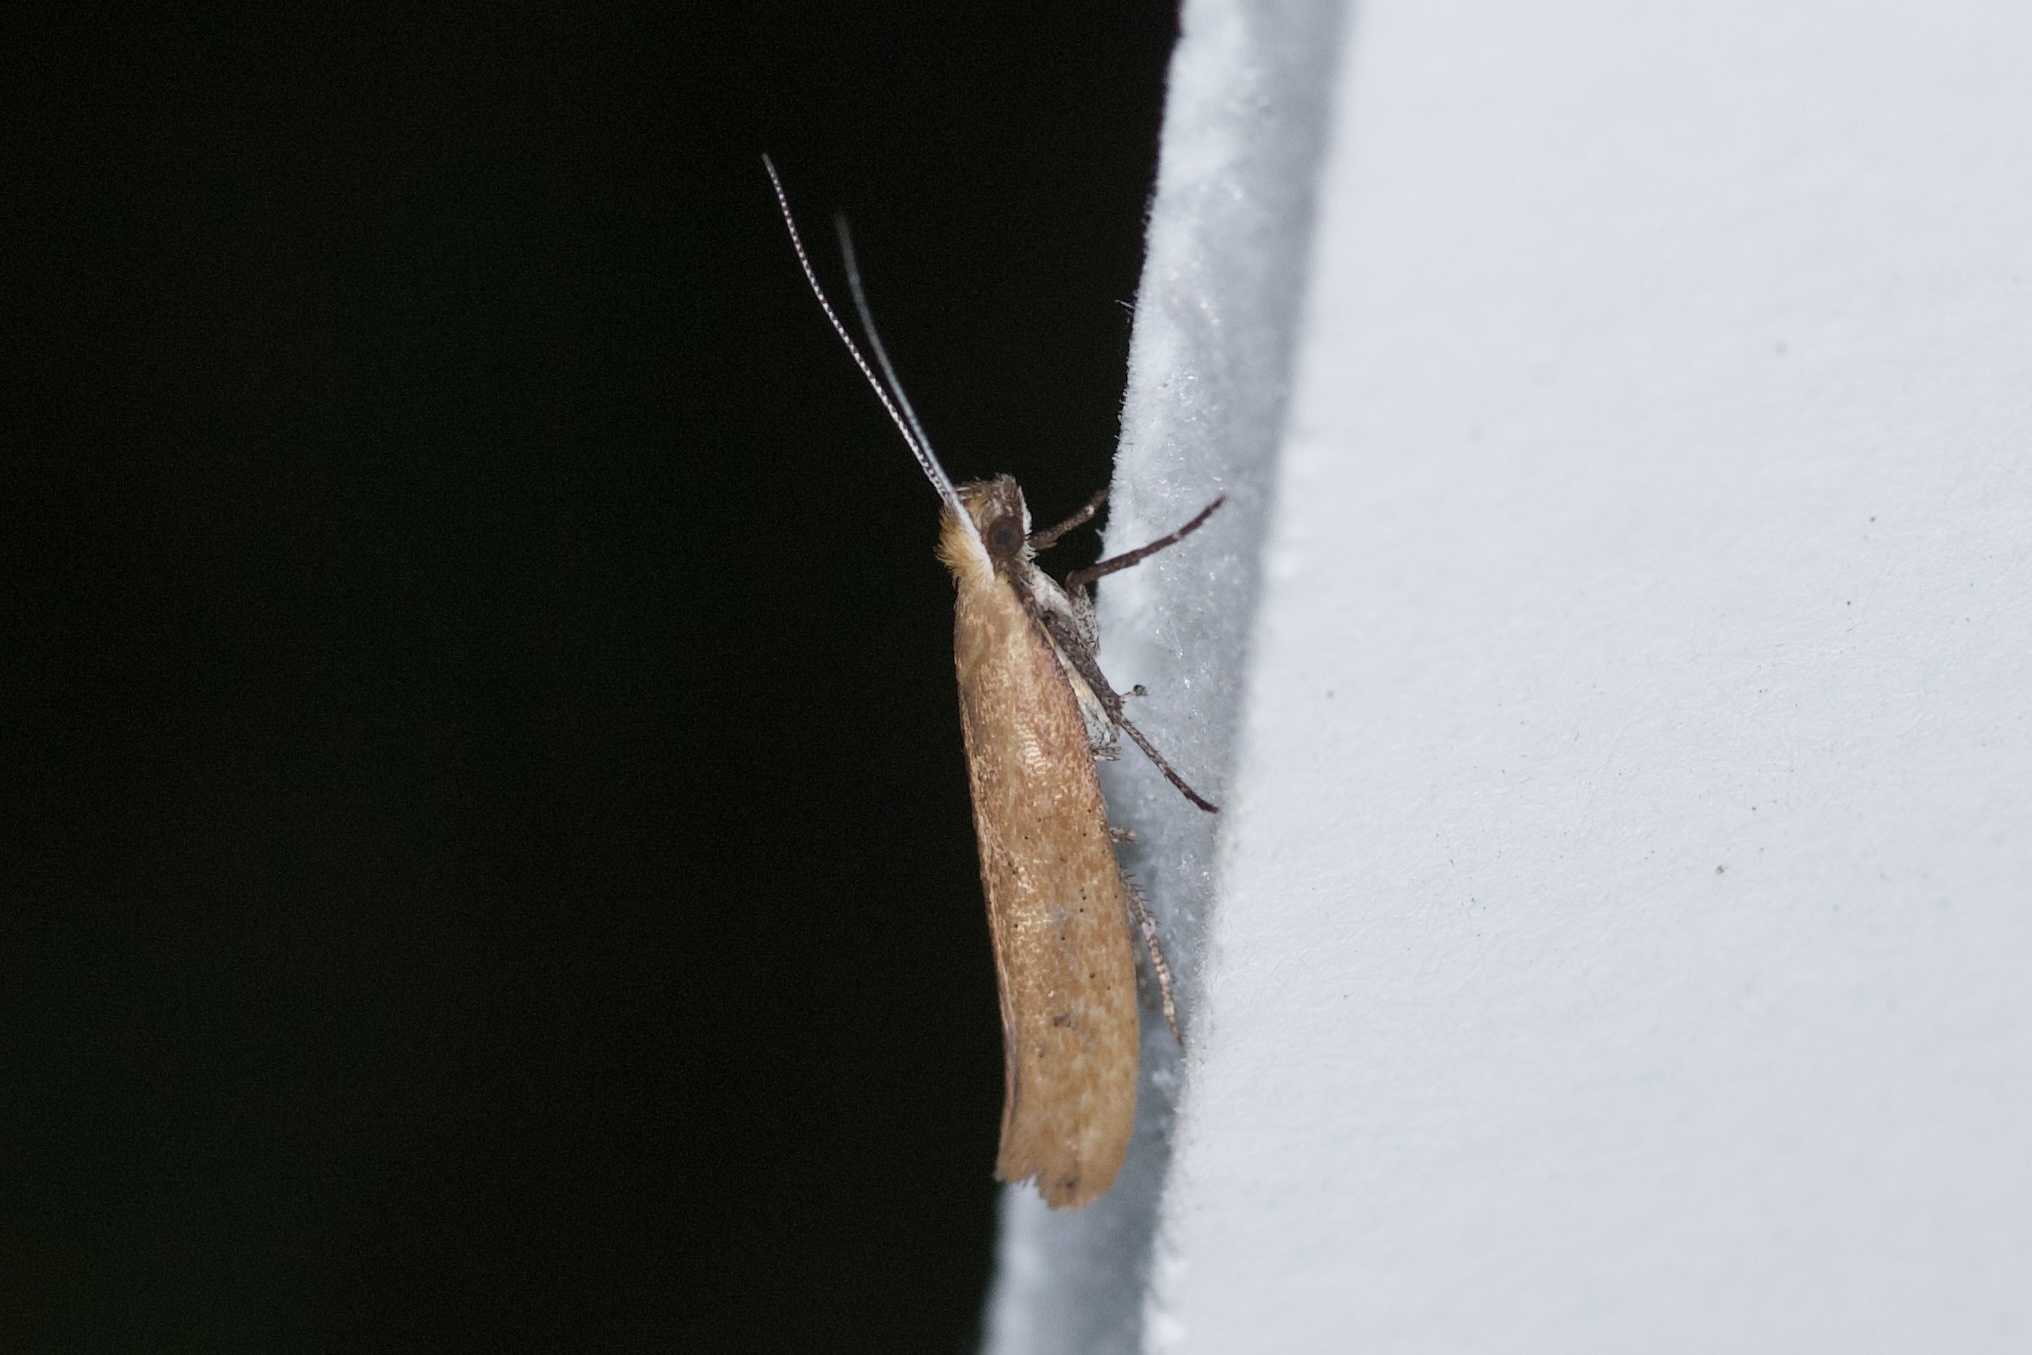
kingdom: Animalia
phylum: Arthropoda
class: Insecta
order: Lepidoptera
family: Ypsolophidae
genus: Ypsolopha
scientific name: Ypsolopha
